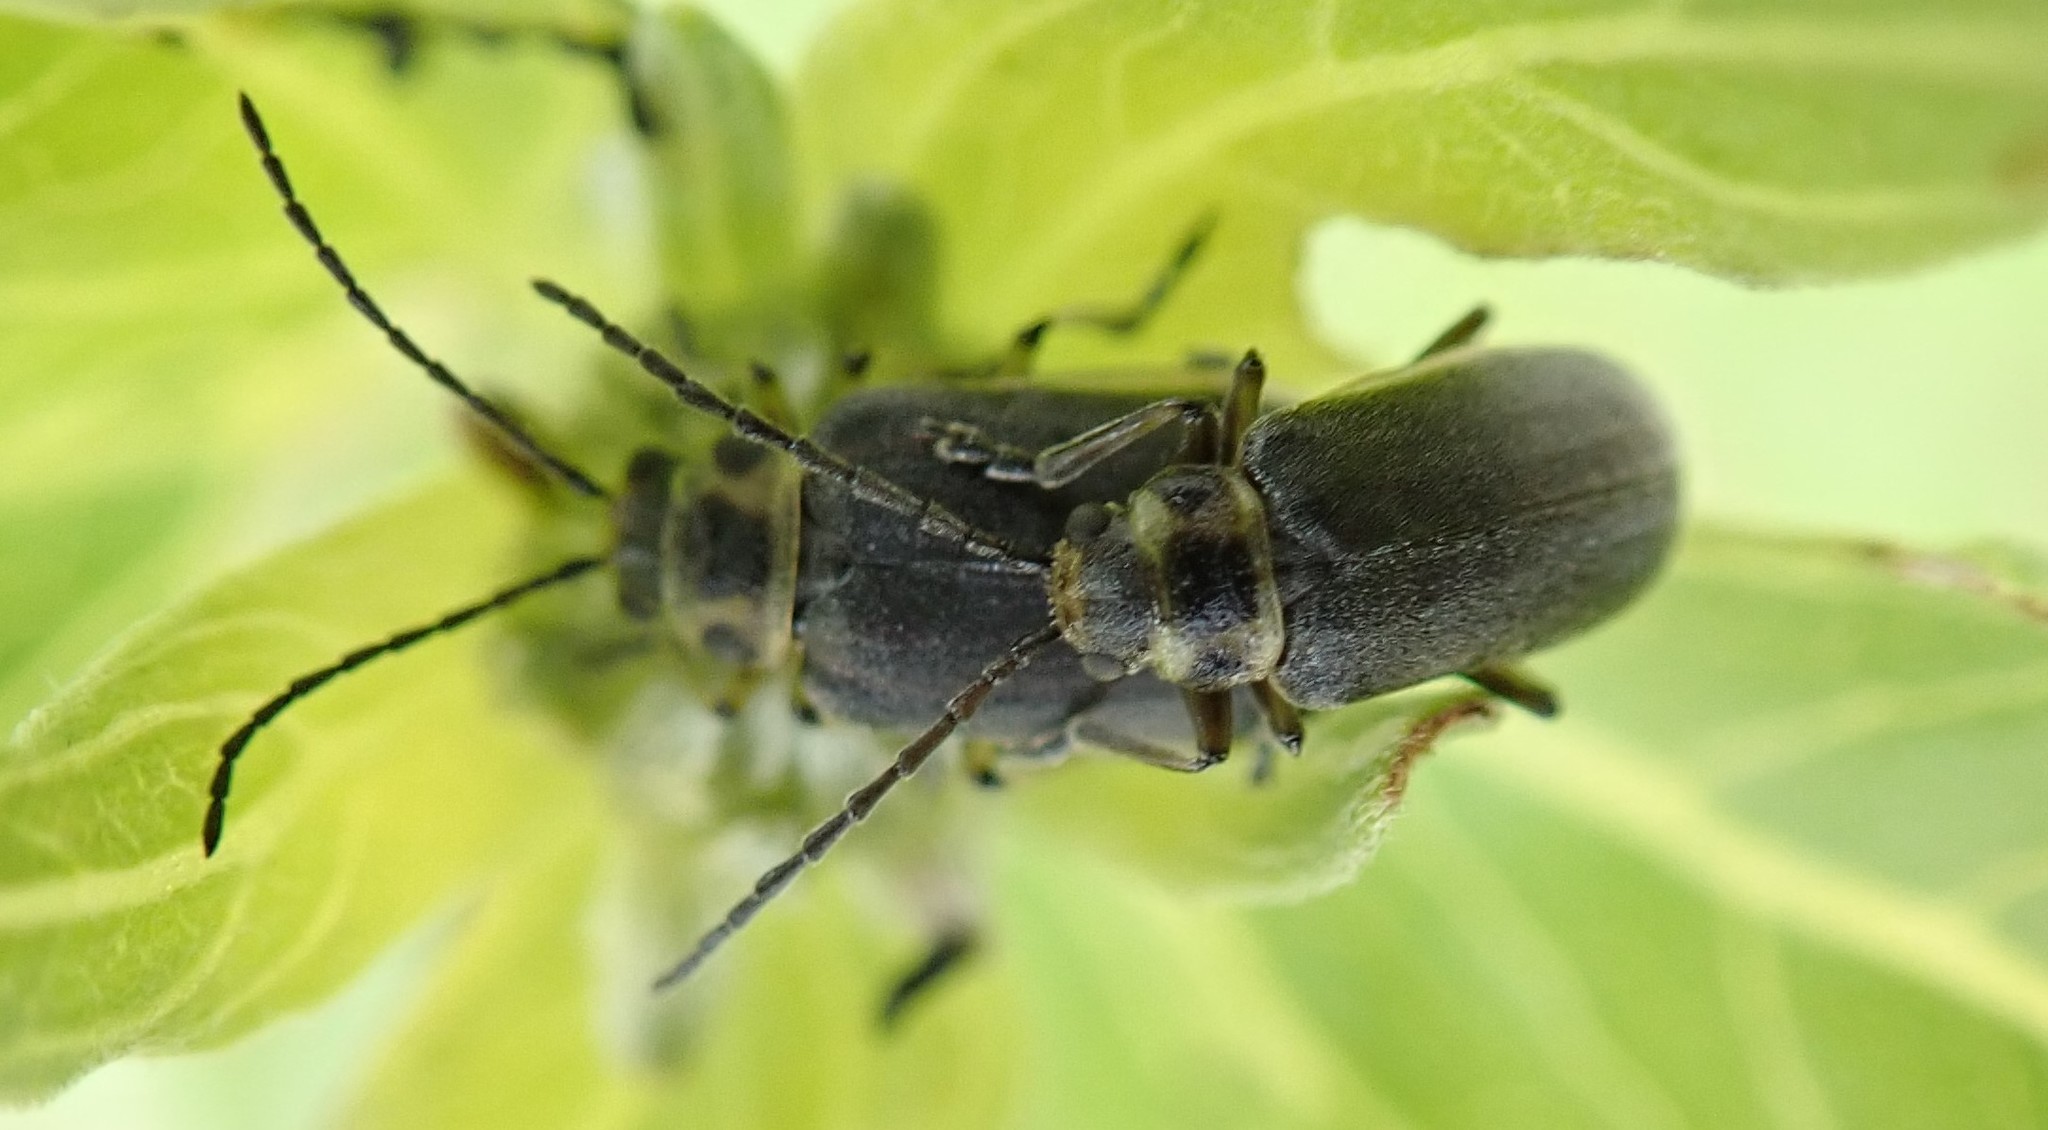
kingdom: Animalia
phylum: Arthropoda
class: Insecta
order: Coleoptera
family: Chrysomelidae
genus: Trirhabda
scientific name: Trirhabda geminata
